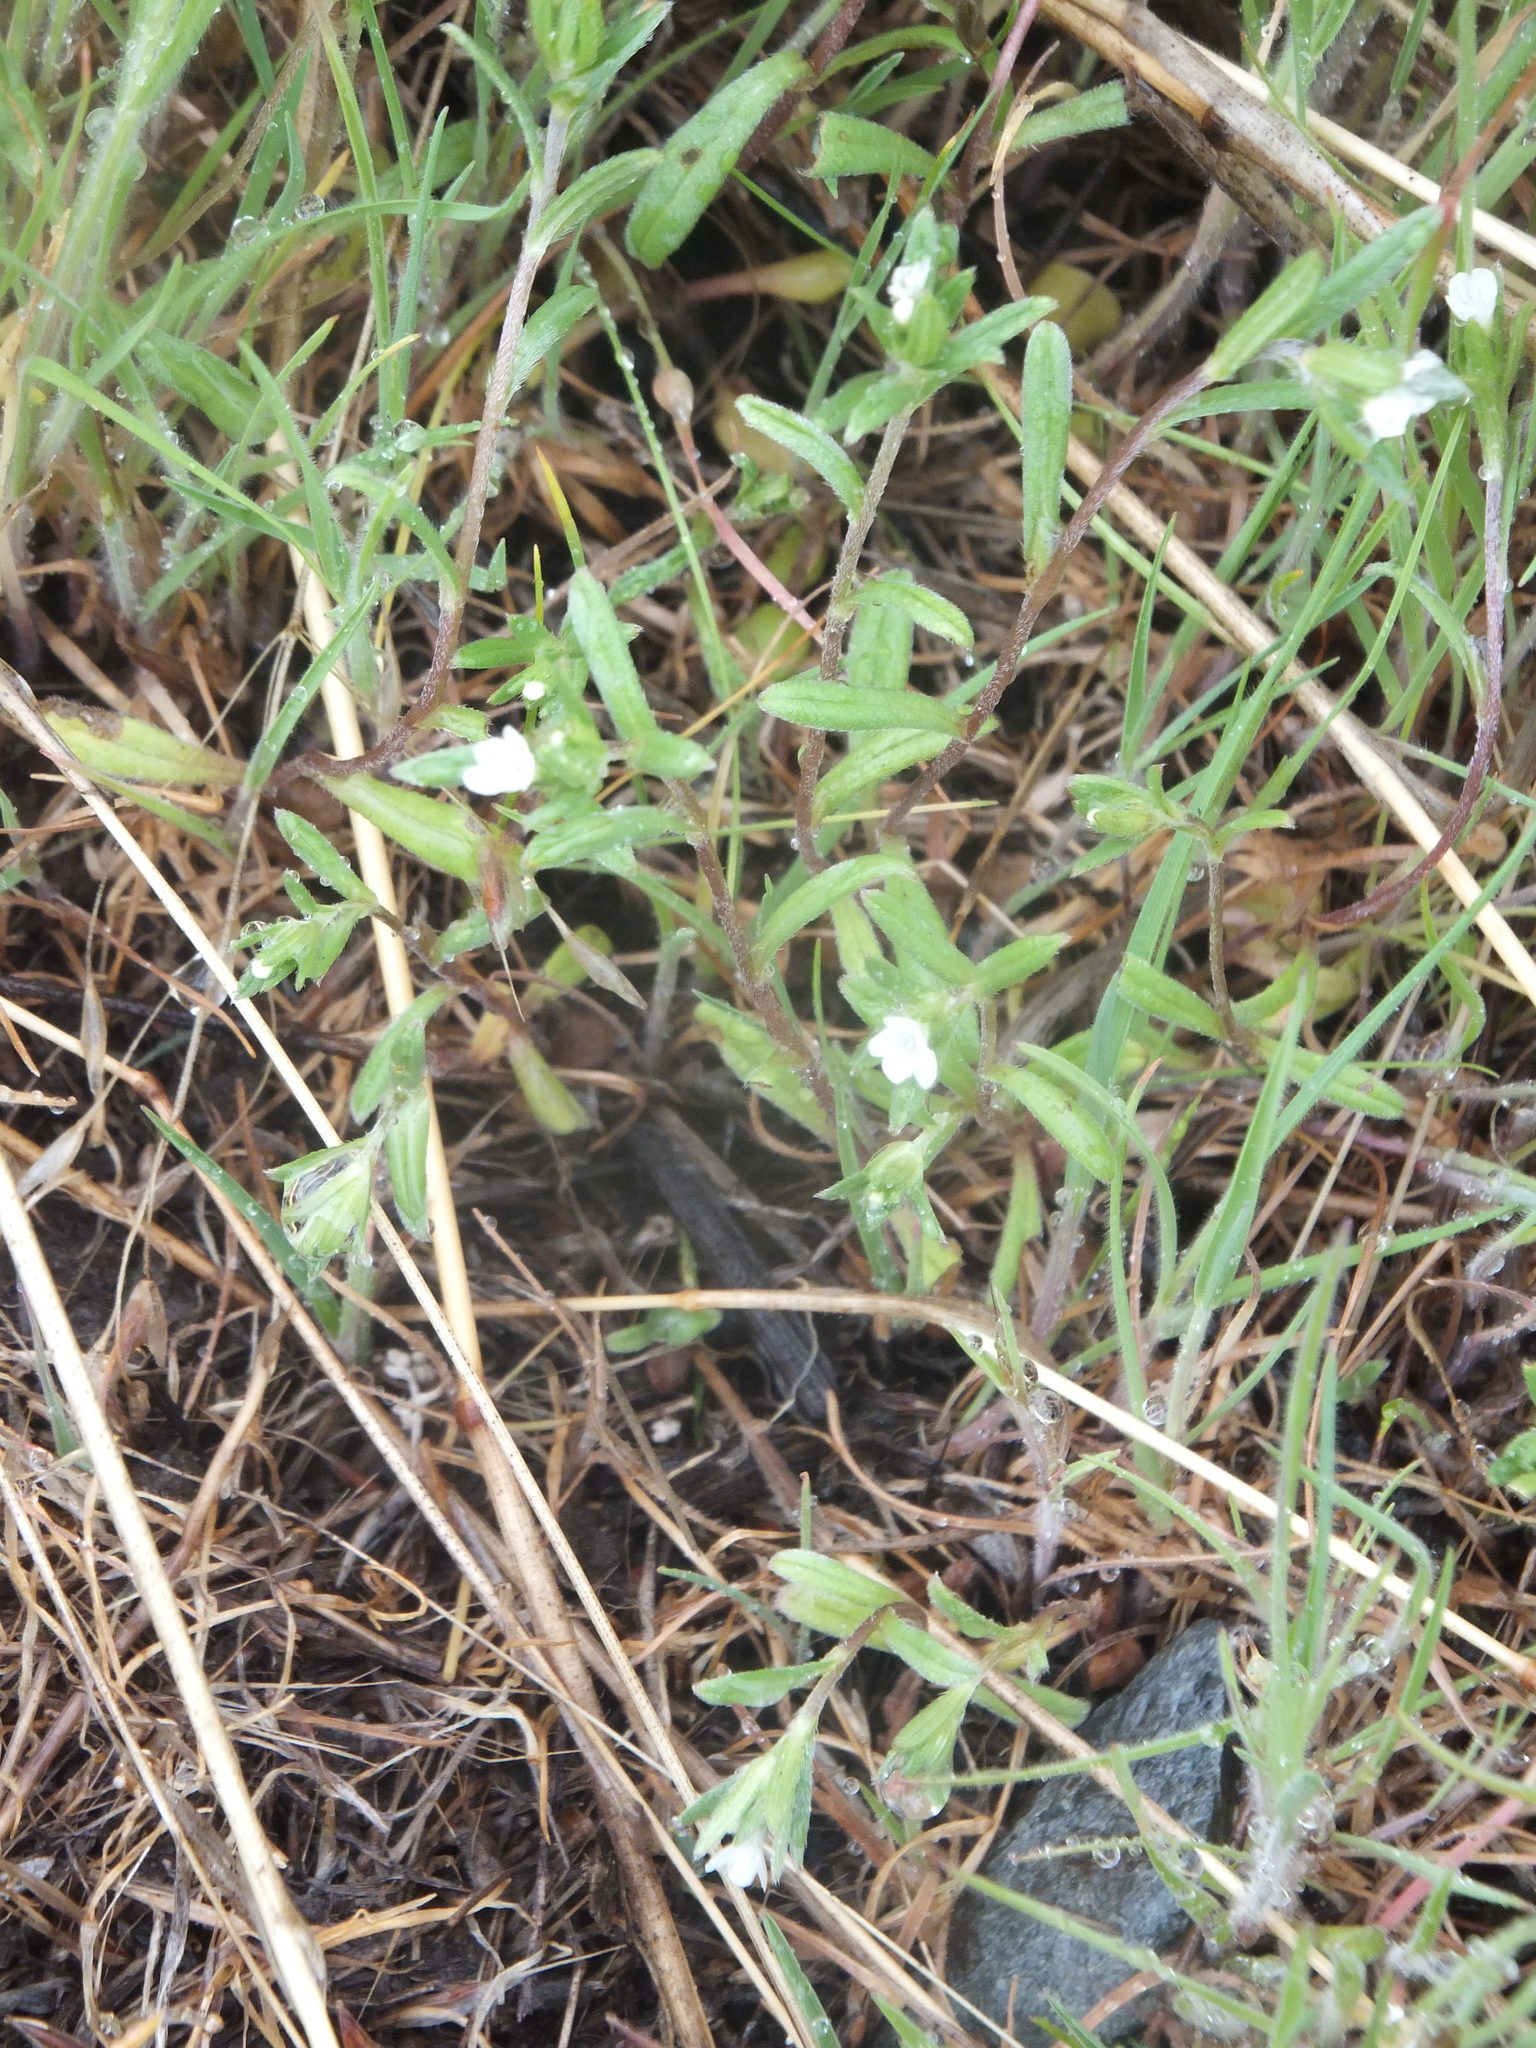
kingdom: Plantae
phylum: Tracheophyta
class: Magnoliopsida
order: Boraginales
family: Boraginaceae
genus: Buglossoides
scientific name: Buglossoides arvensis
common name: Corn gromwell
